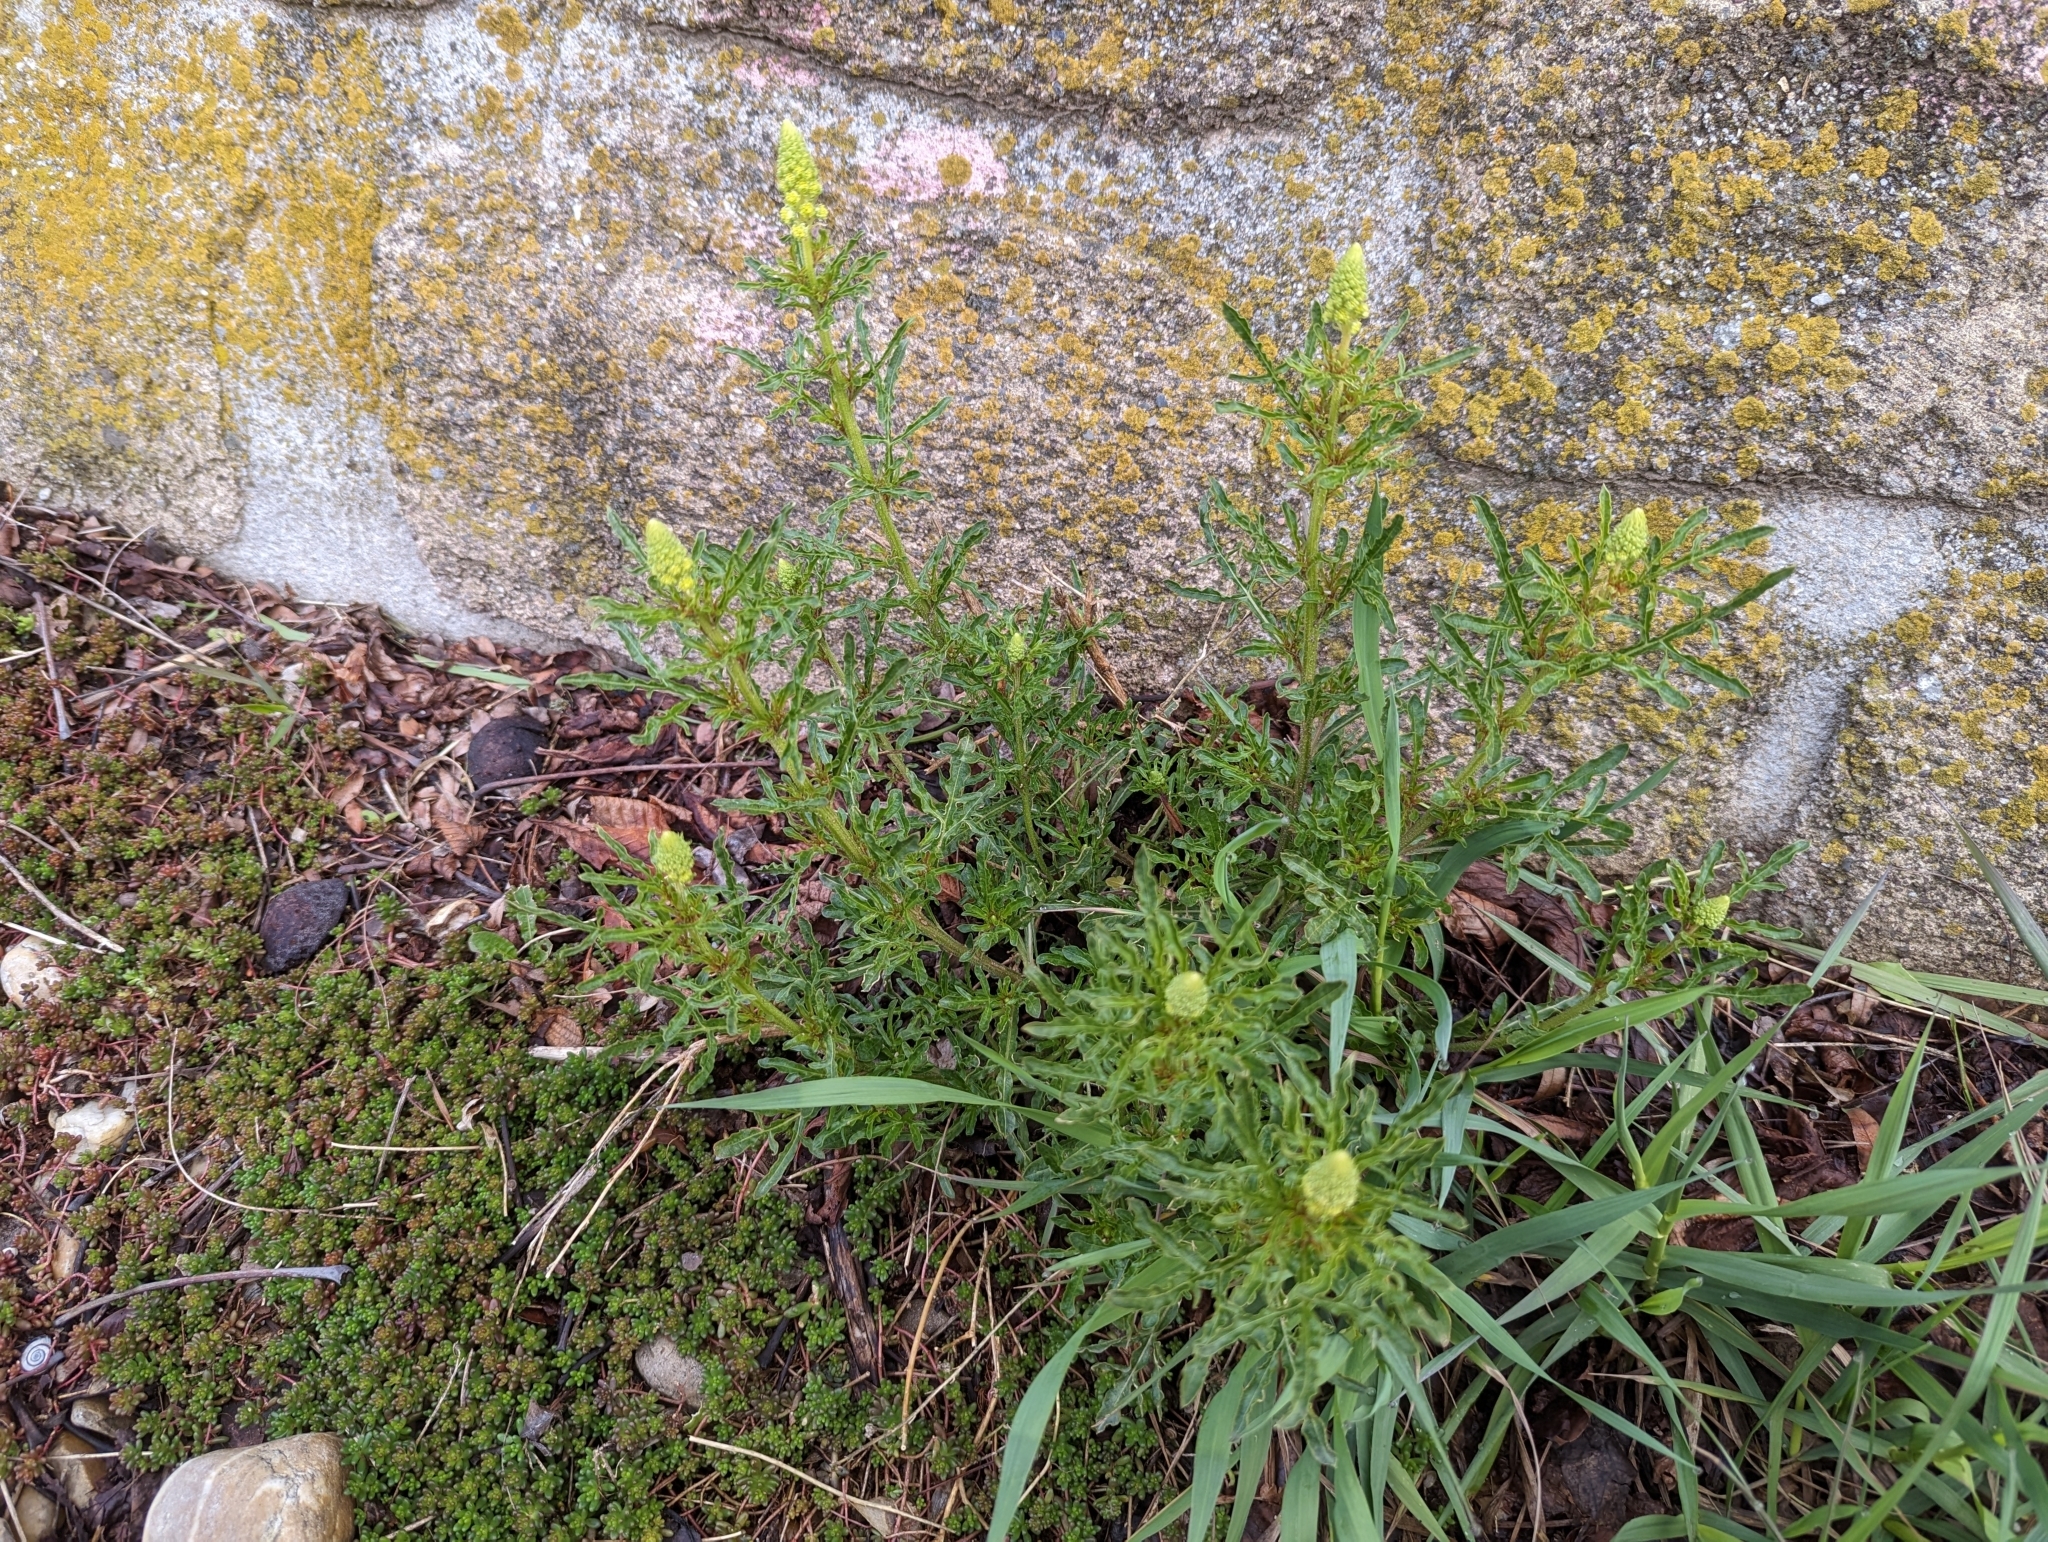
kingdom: Plantae
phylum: Tracheophyta
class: Magnoliopsida
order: Brassicales
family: Resedaceae
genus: Reseda
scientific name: Reseda lutea
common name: Wild mignonette
